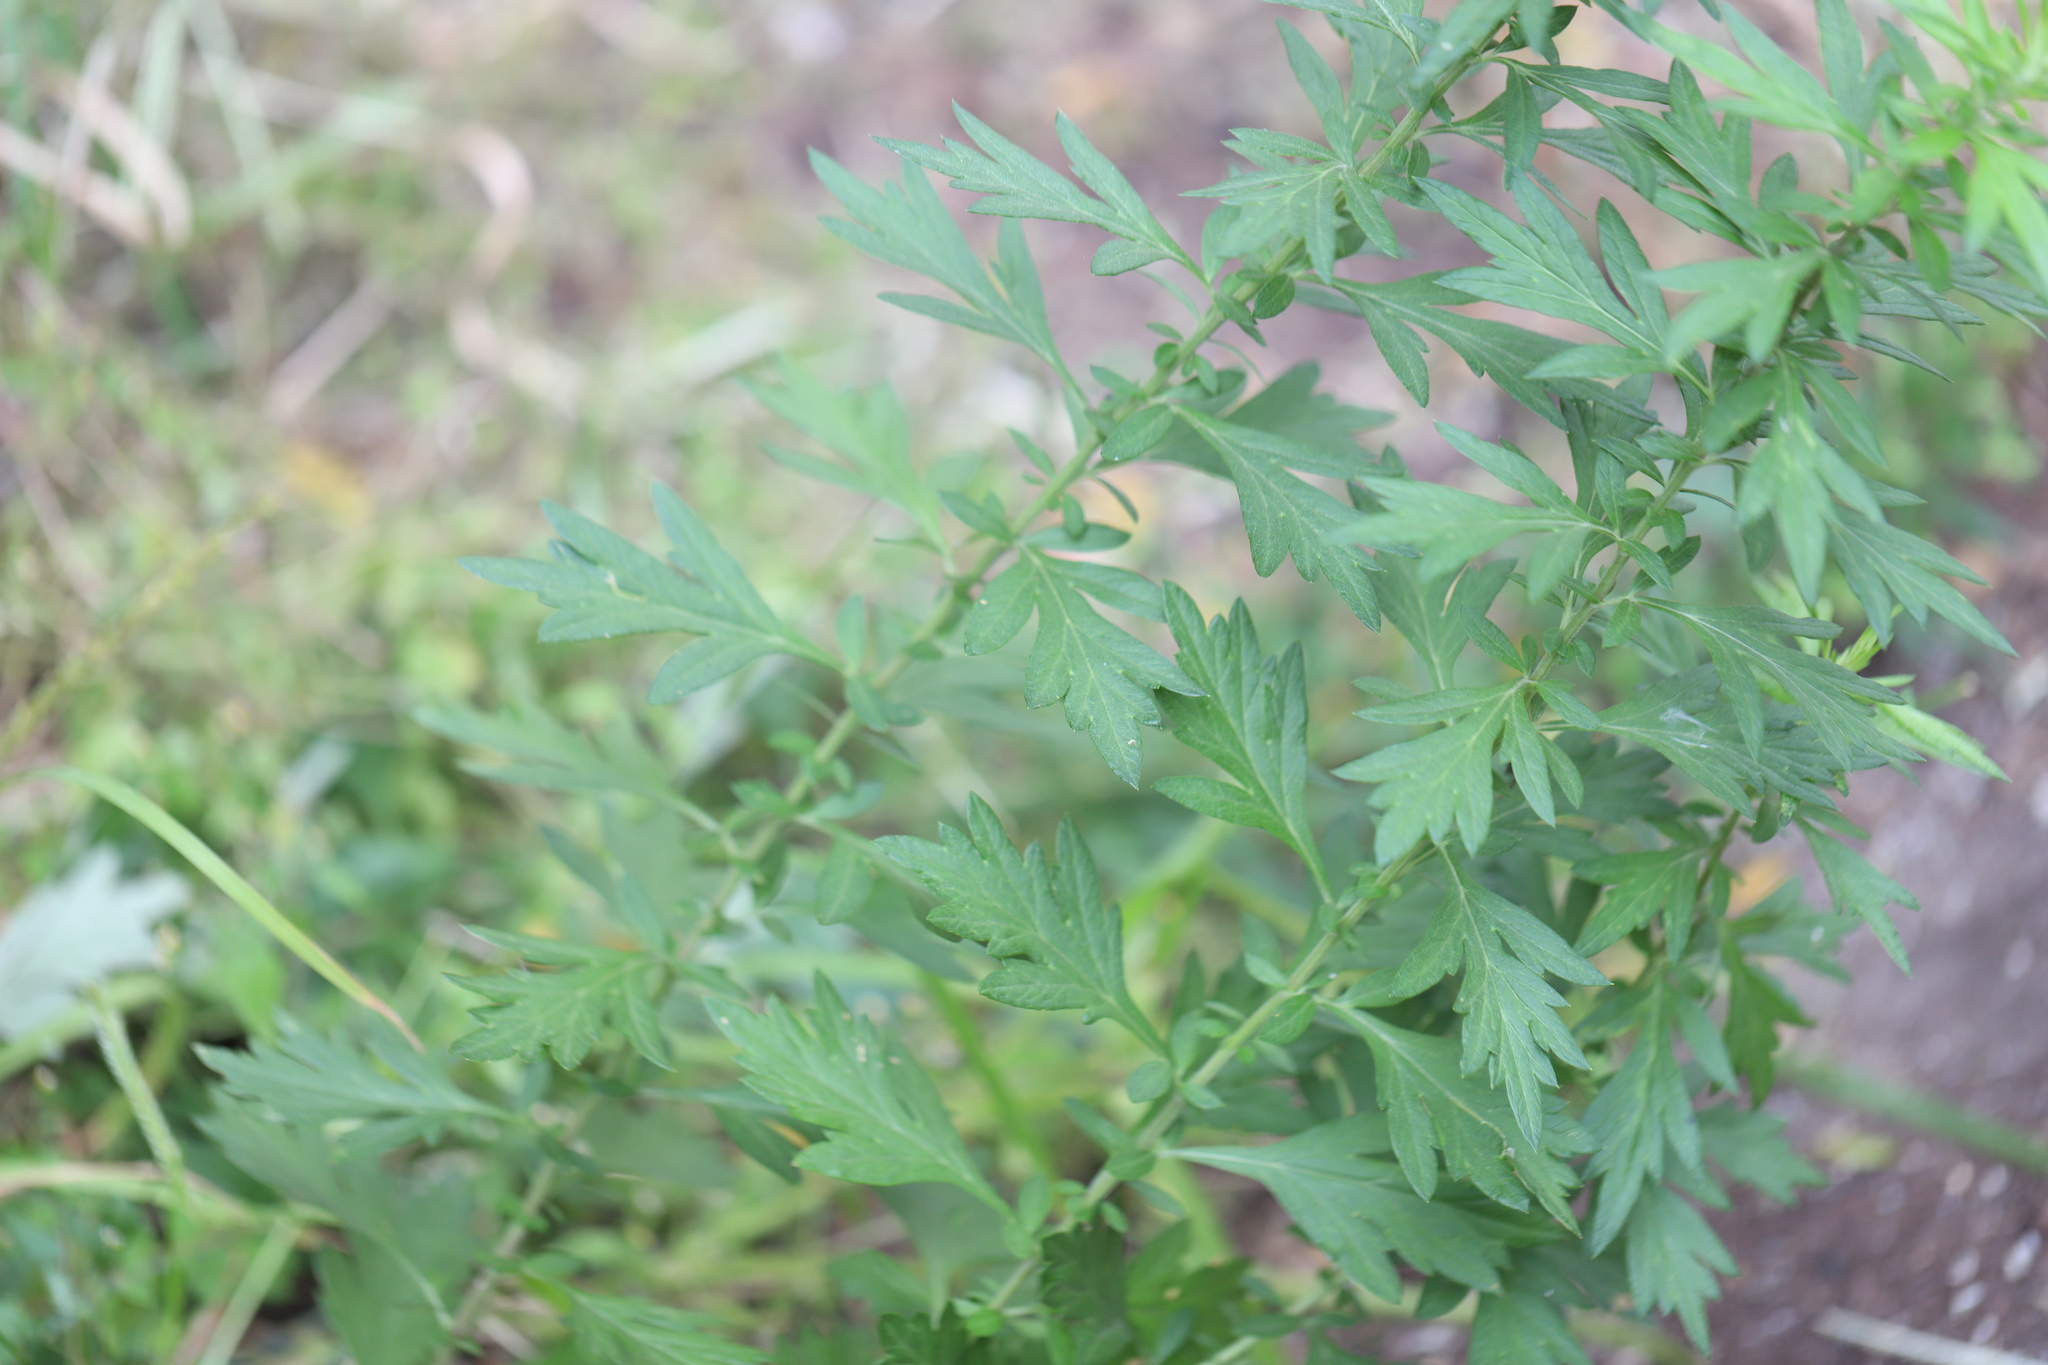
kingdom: Plantae
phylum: Tracheophyta
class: Magnoliopsida
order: Asterales
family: Asteraceae
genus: Artemisia
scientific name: Artemisia vulgaris
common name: Mugwort
